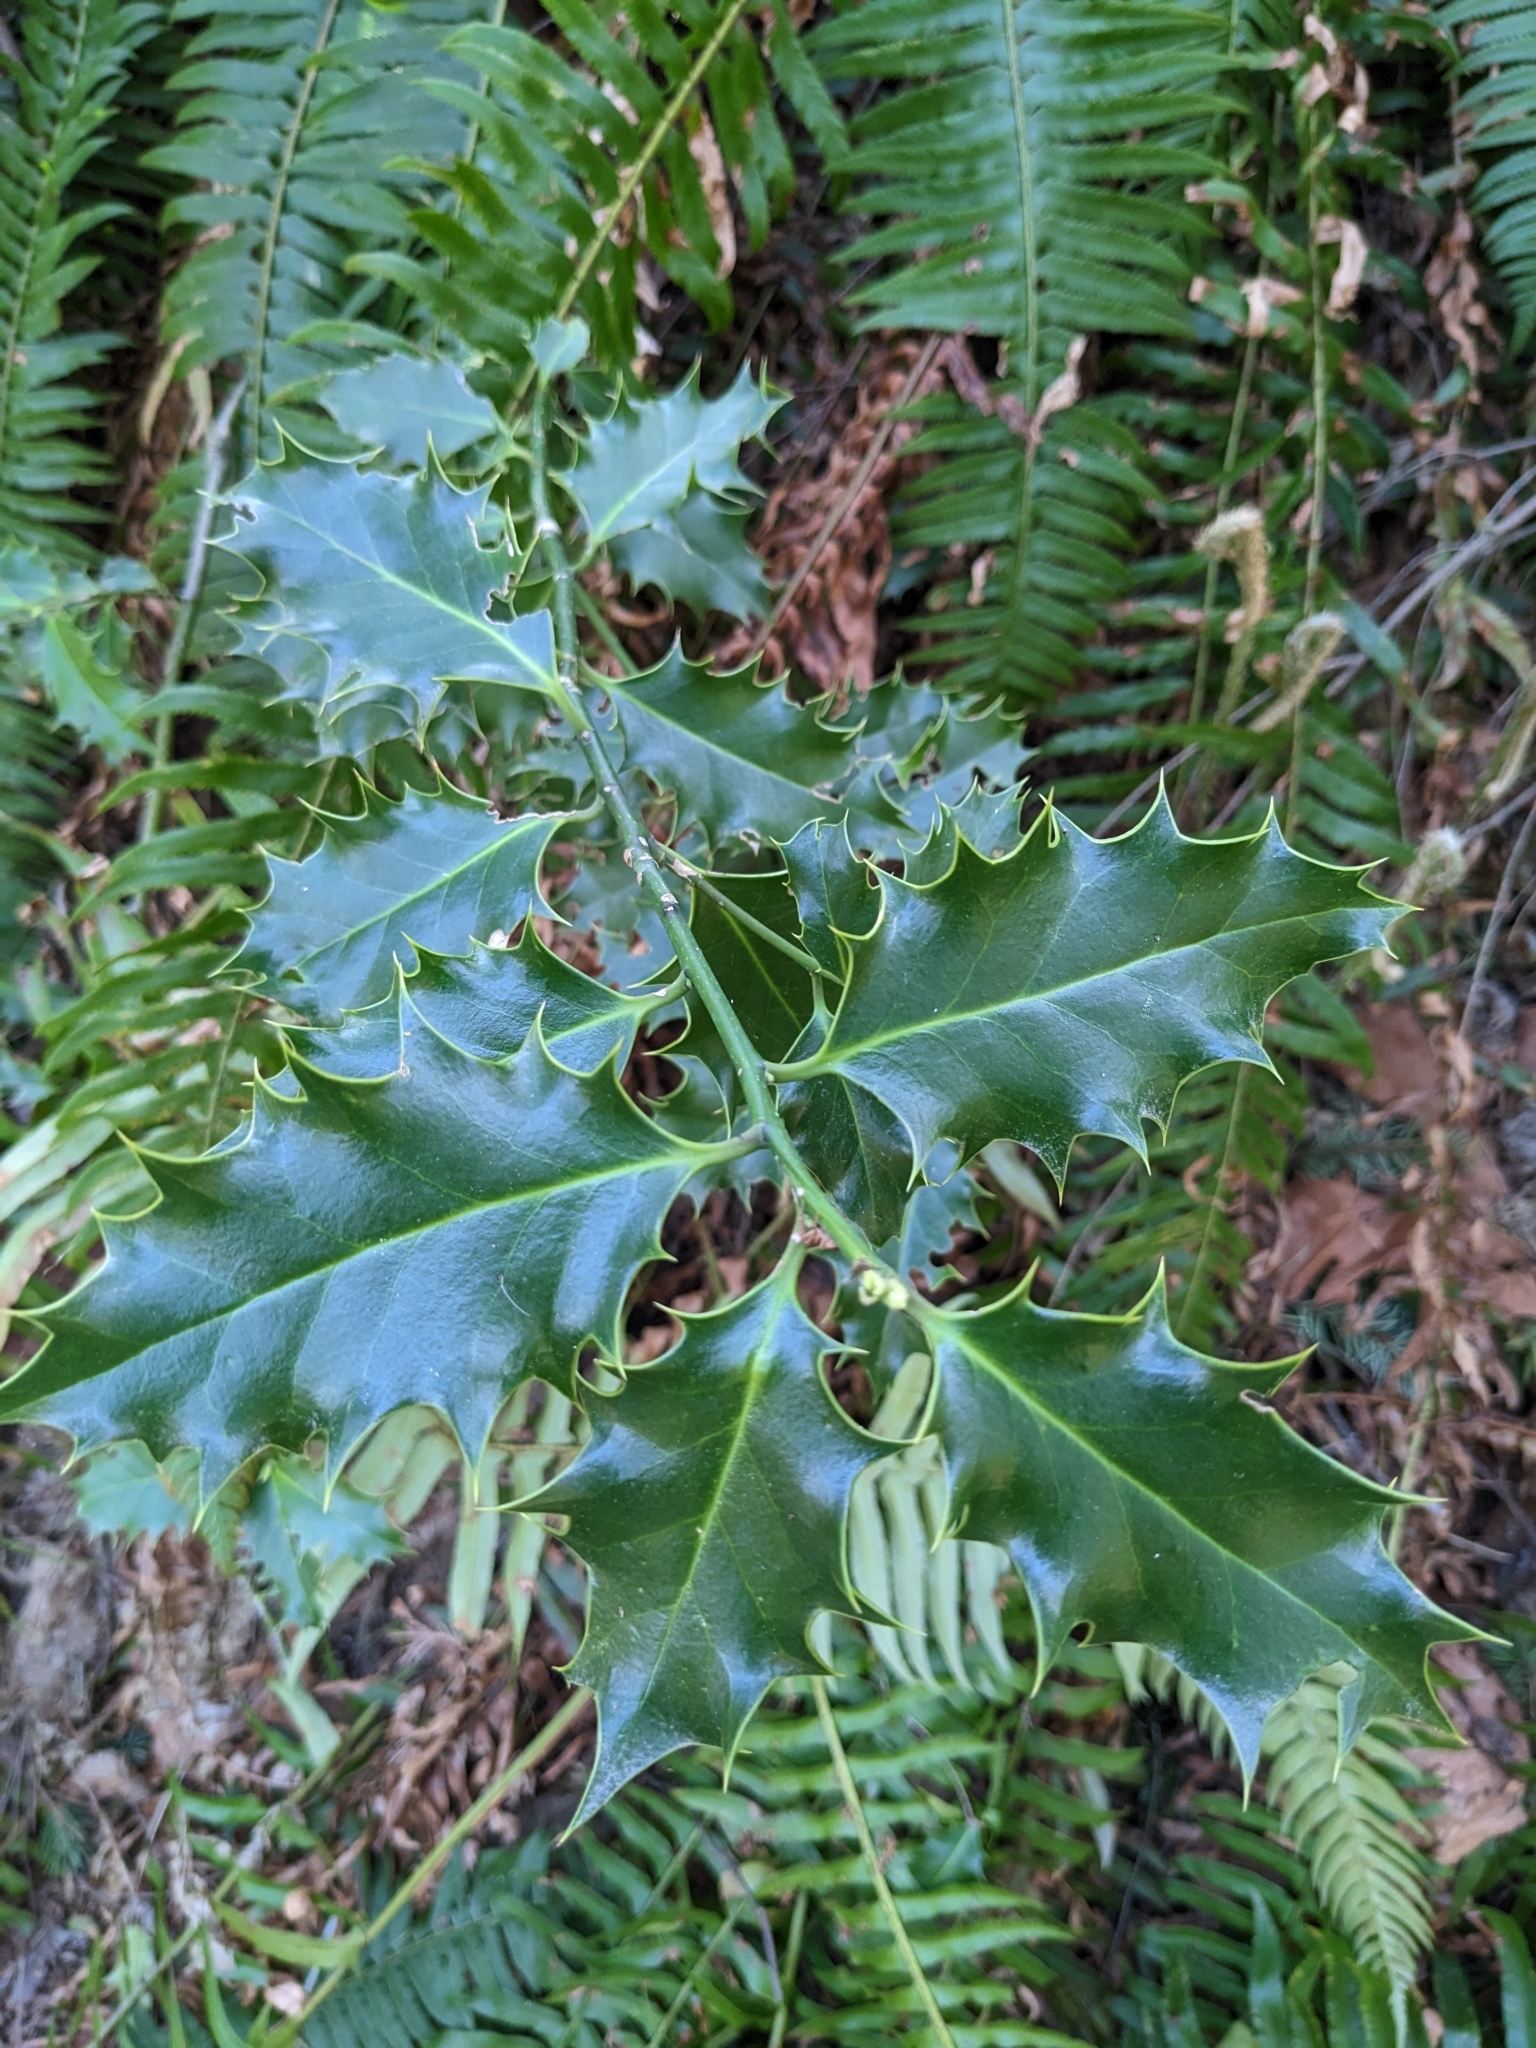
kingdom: Plantae
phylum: Tracheophyta
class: Magnoliopsida
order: Aquifoliales
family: Aquifoliaceae
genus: Ilex
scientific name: Ilex aquifolium
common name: English holly
